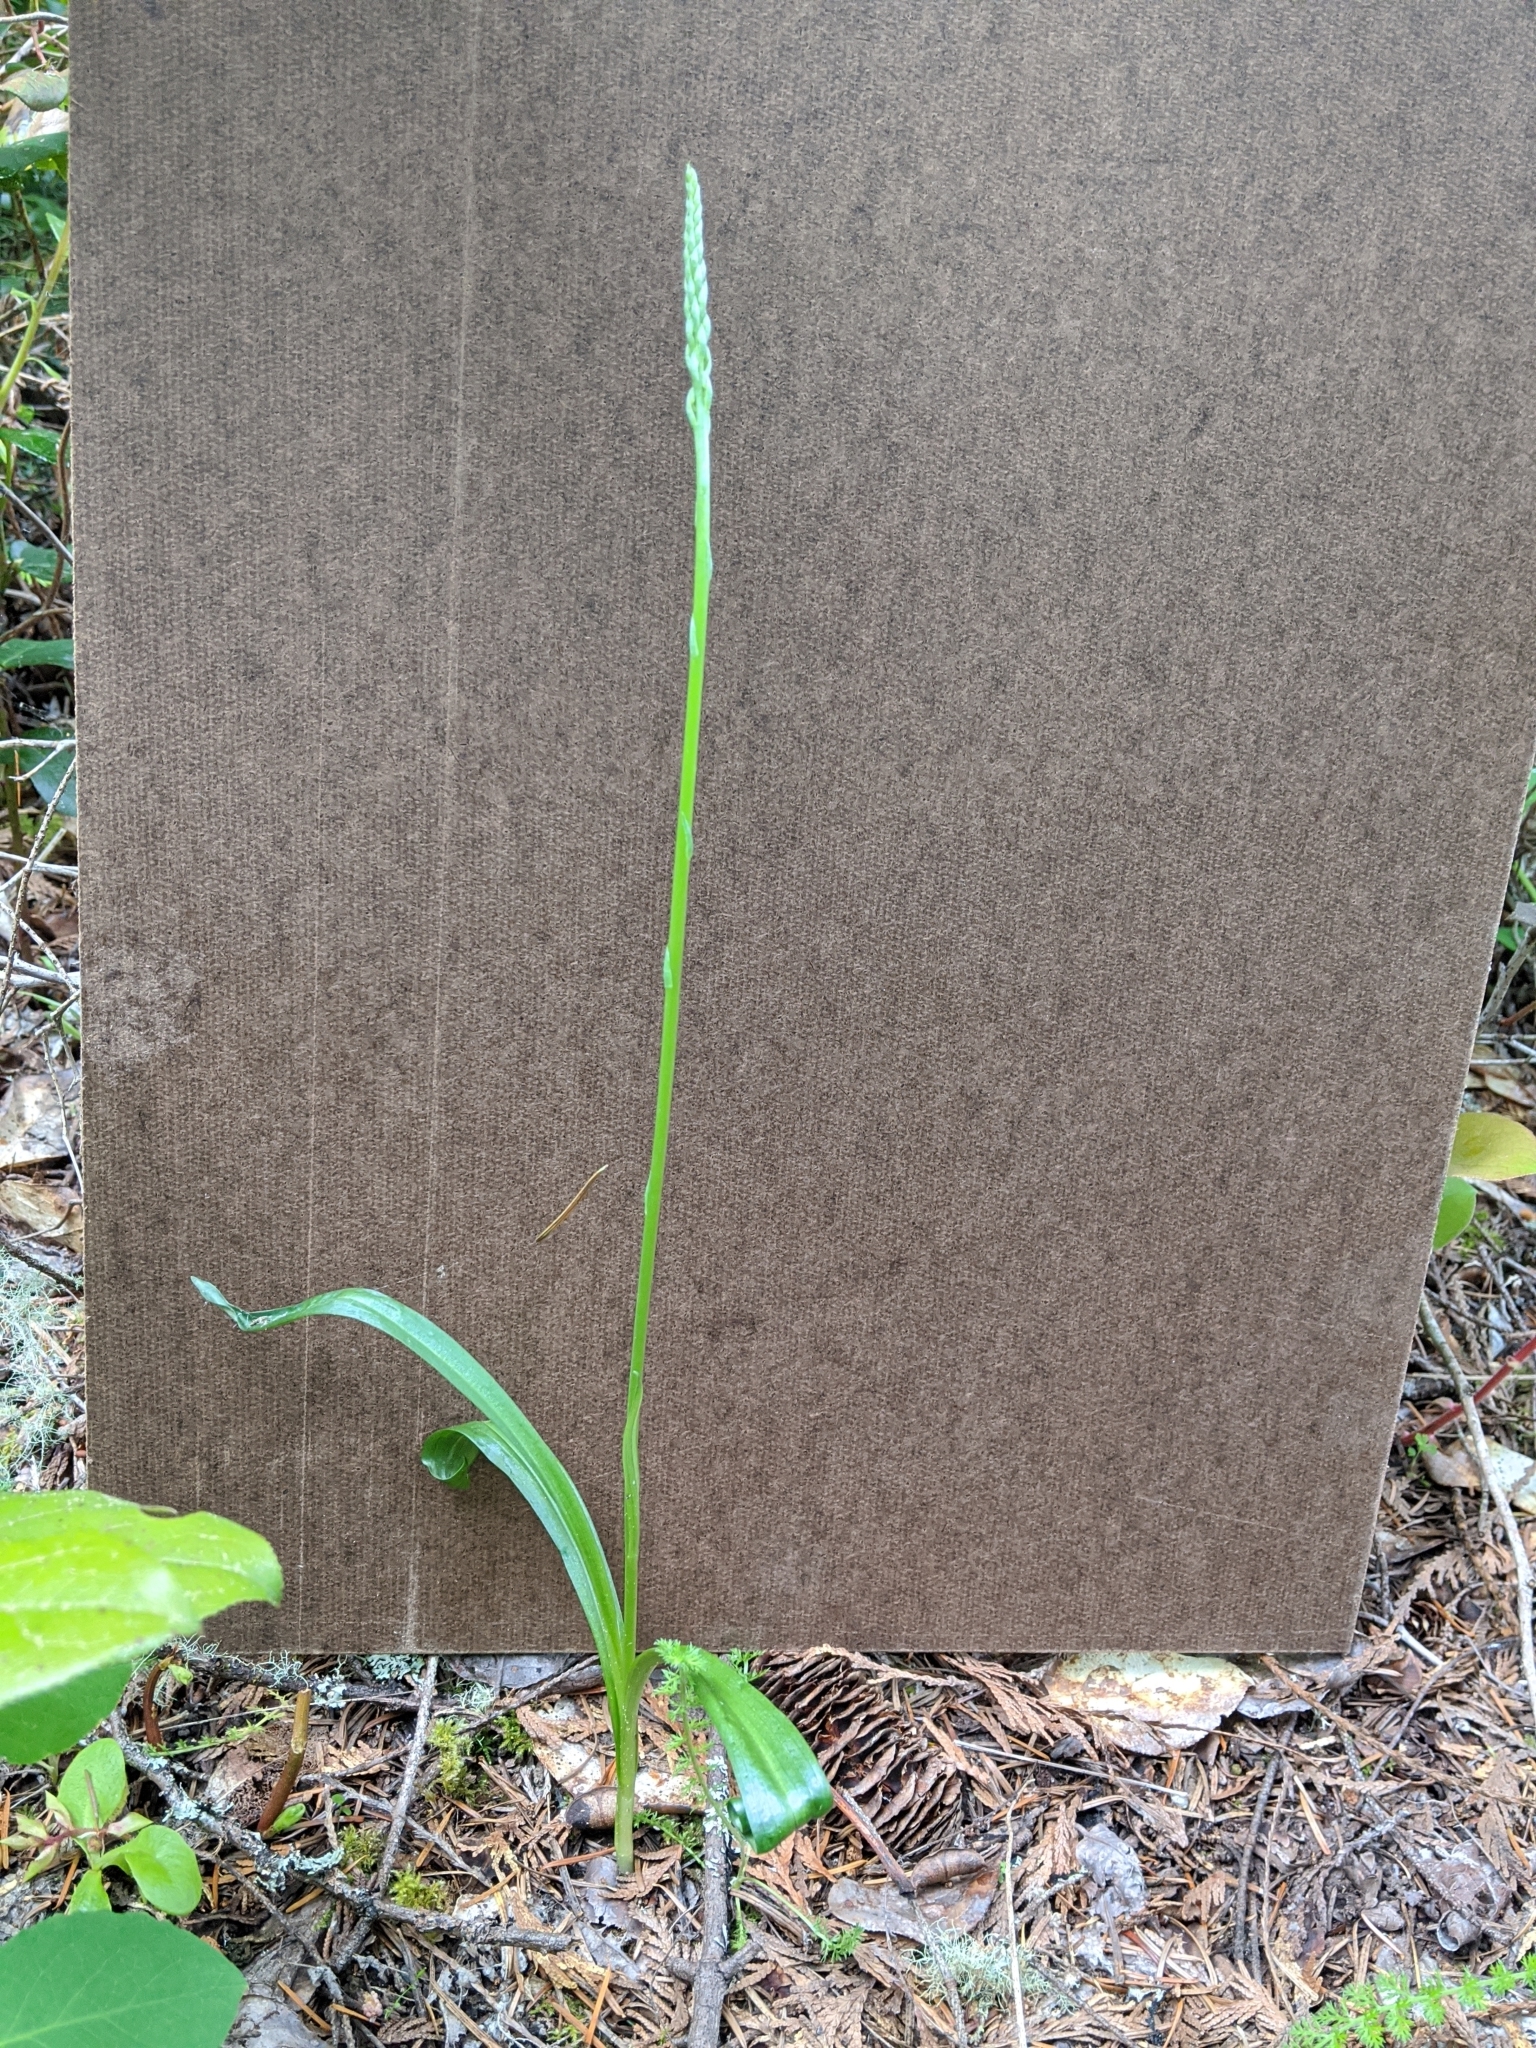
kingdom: Plantae
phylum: Tracheophyta
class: Liliopsida
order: Asparagales
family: Orchidaceae
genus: Platanthera
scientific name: Platanthera unalascensis
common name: Alaska bog orchid
